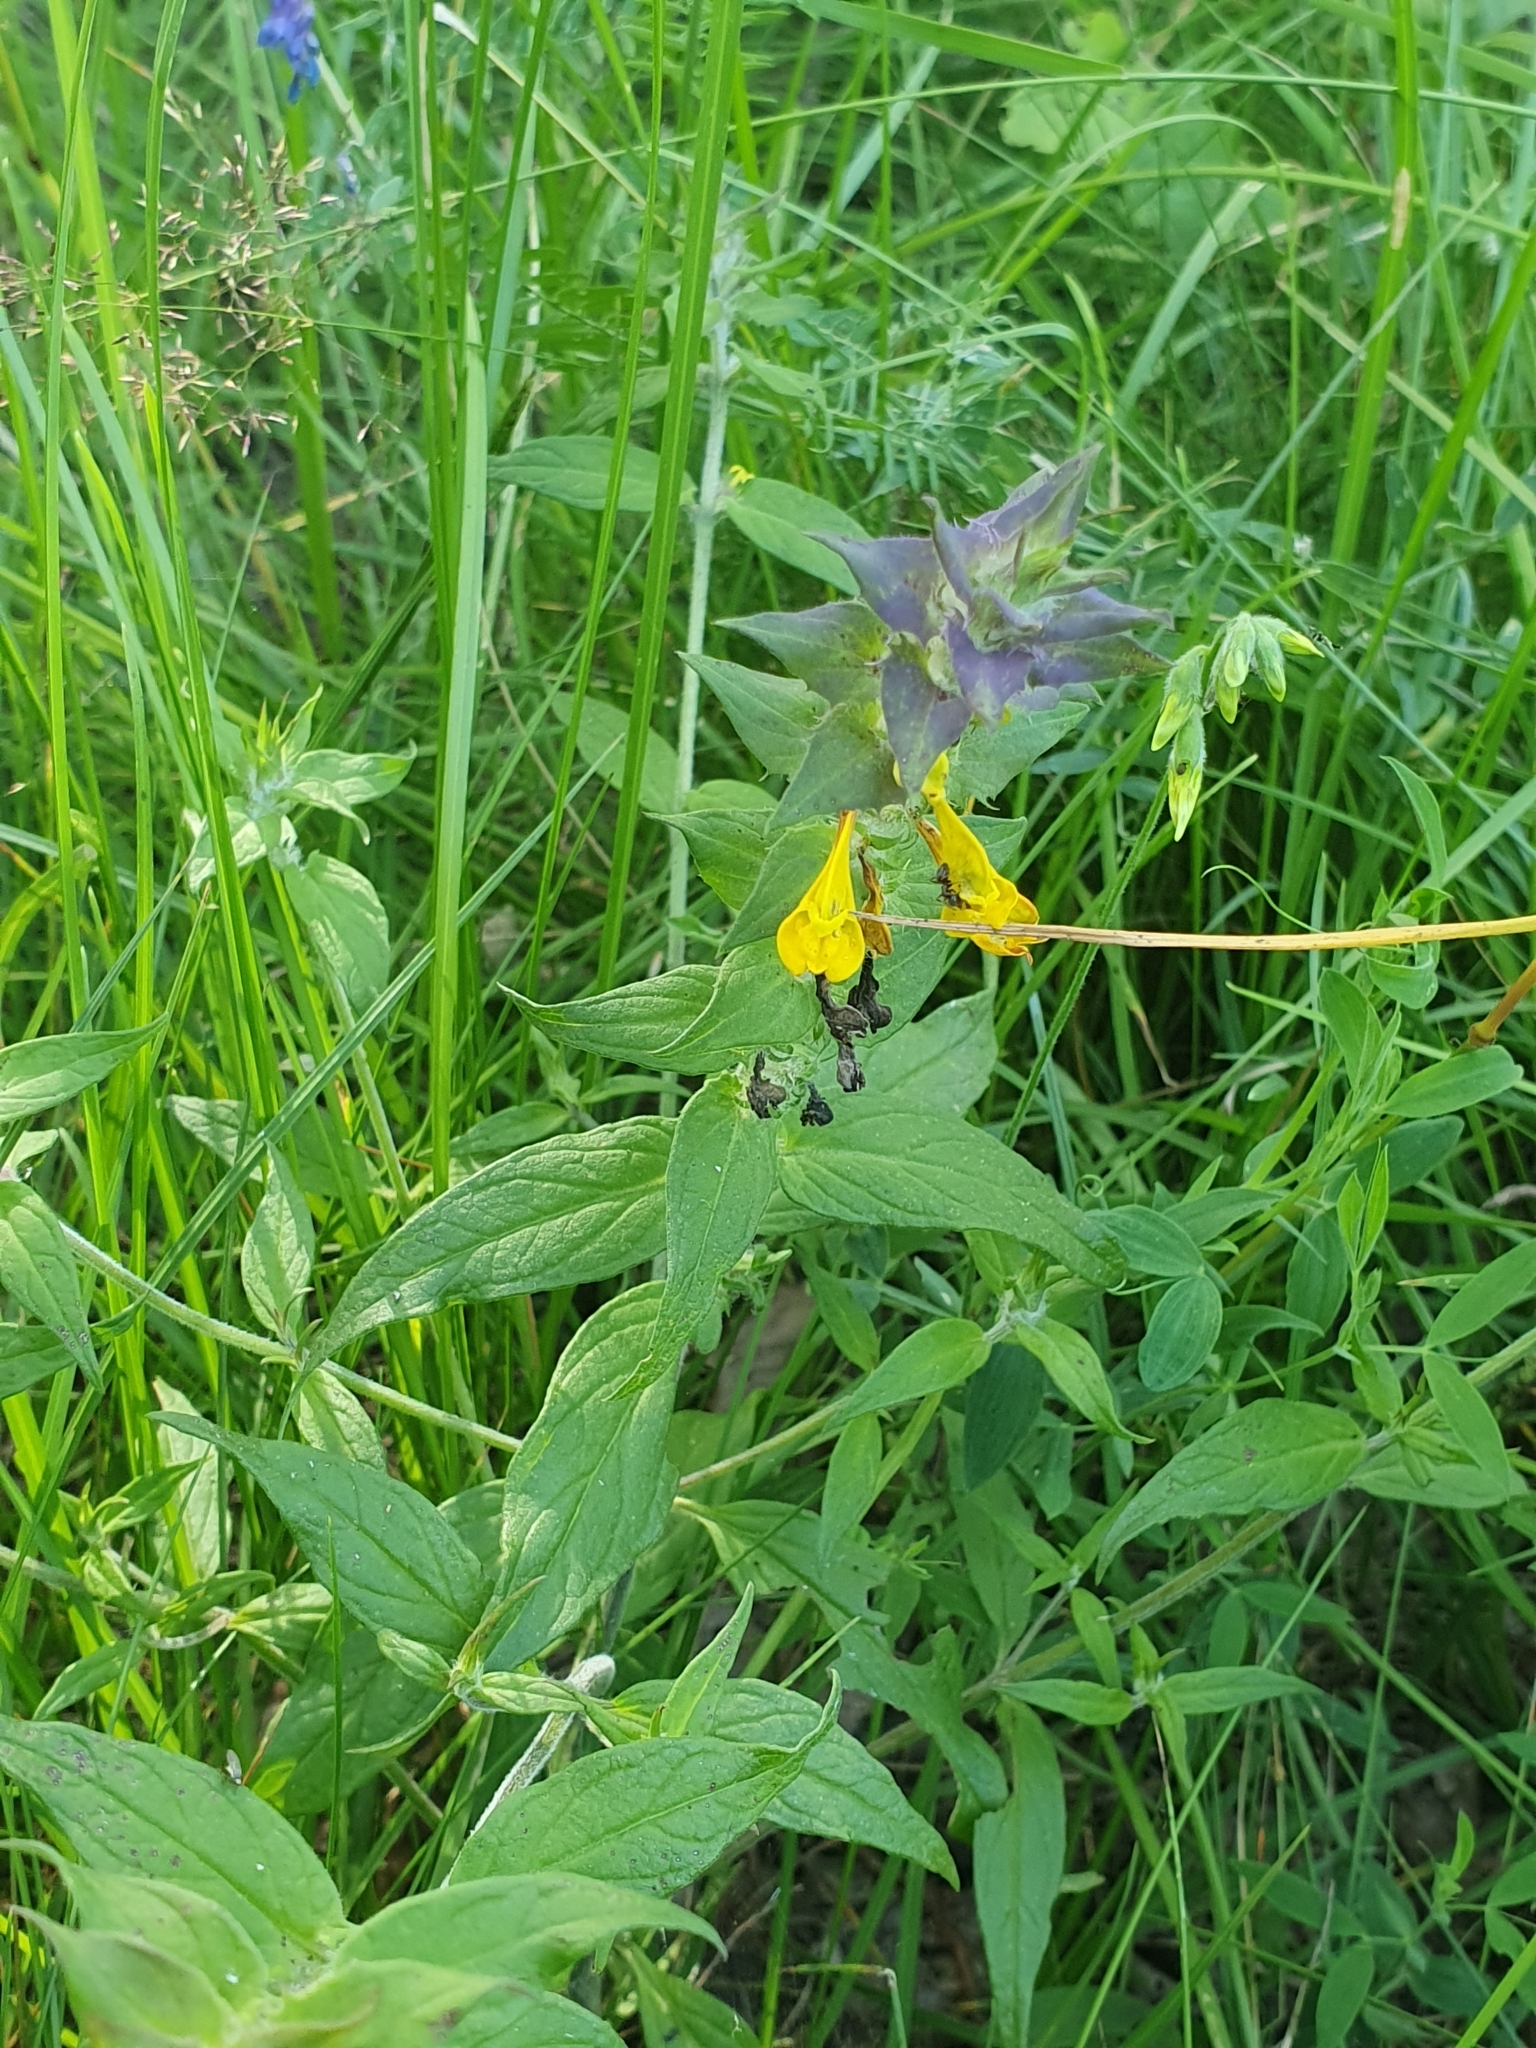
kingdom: Plantae
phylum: Tracheophyta
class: Magnoliopsida
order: Lamiales
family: Orobanchaceae
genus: Melampyrum
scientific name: Melampyrum nemorosum
